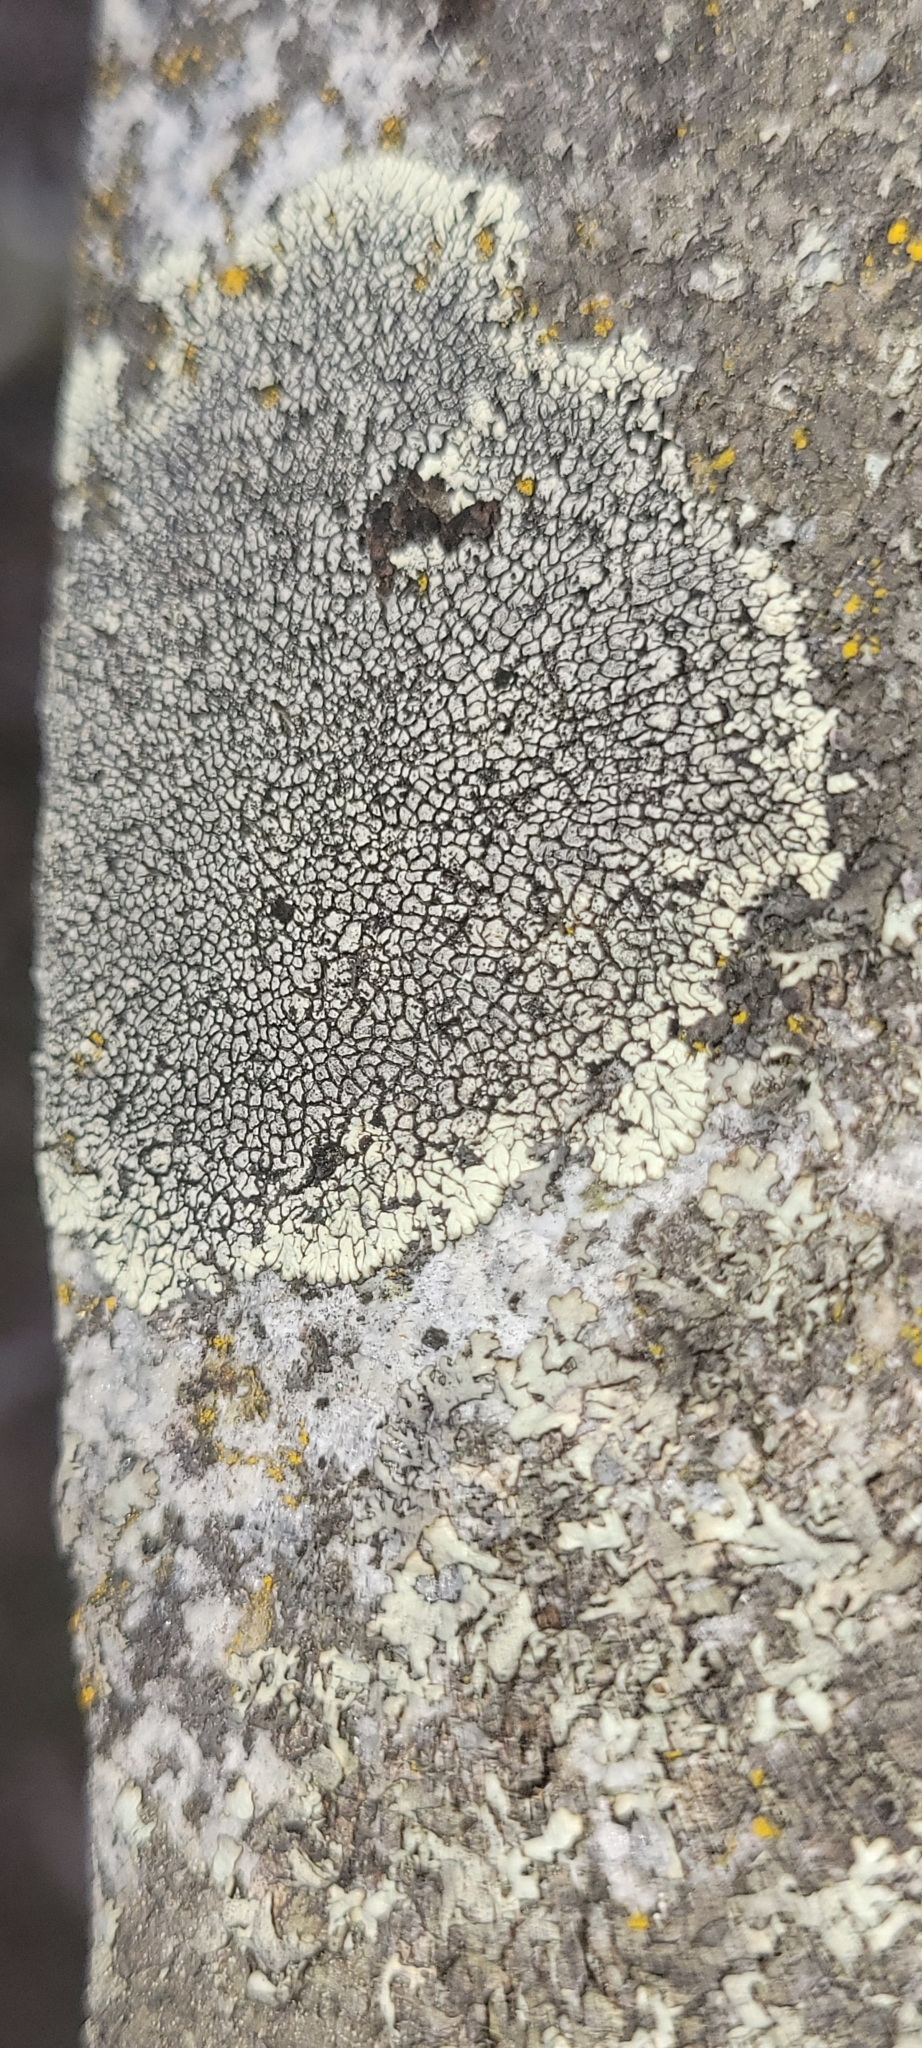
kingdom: Fungi
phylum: Ascomycota
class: Lecanoromycetes
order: Caliciales
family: Caliciaceae
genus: Dimelaena
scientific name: Dimelaena oreina
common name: Golden moonglow lichen
